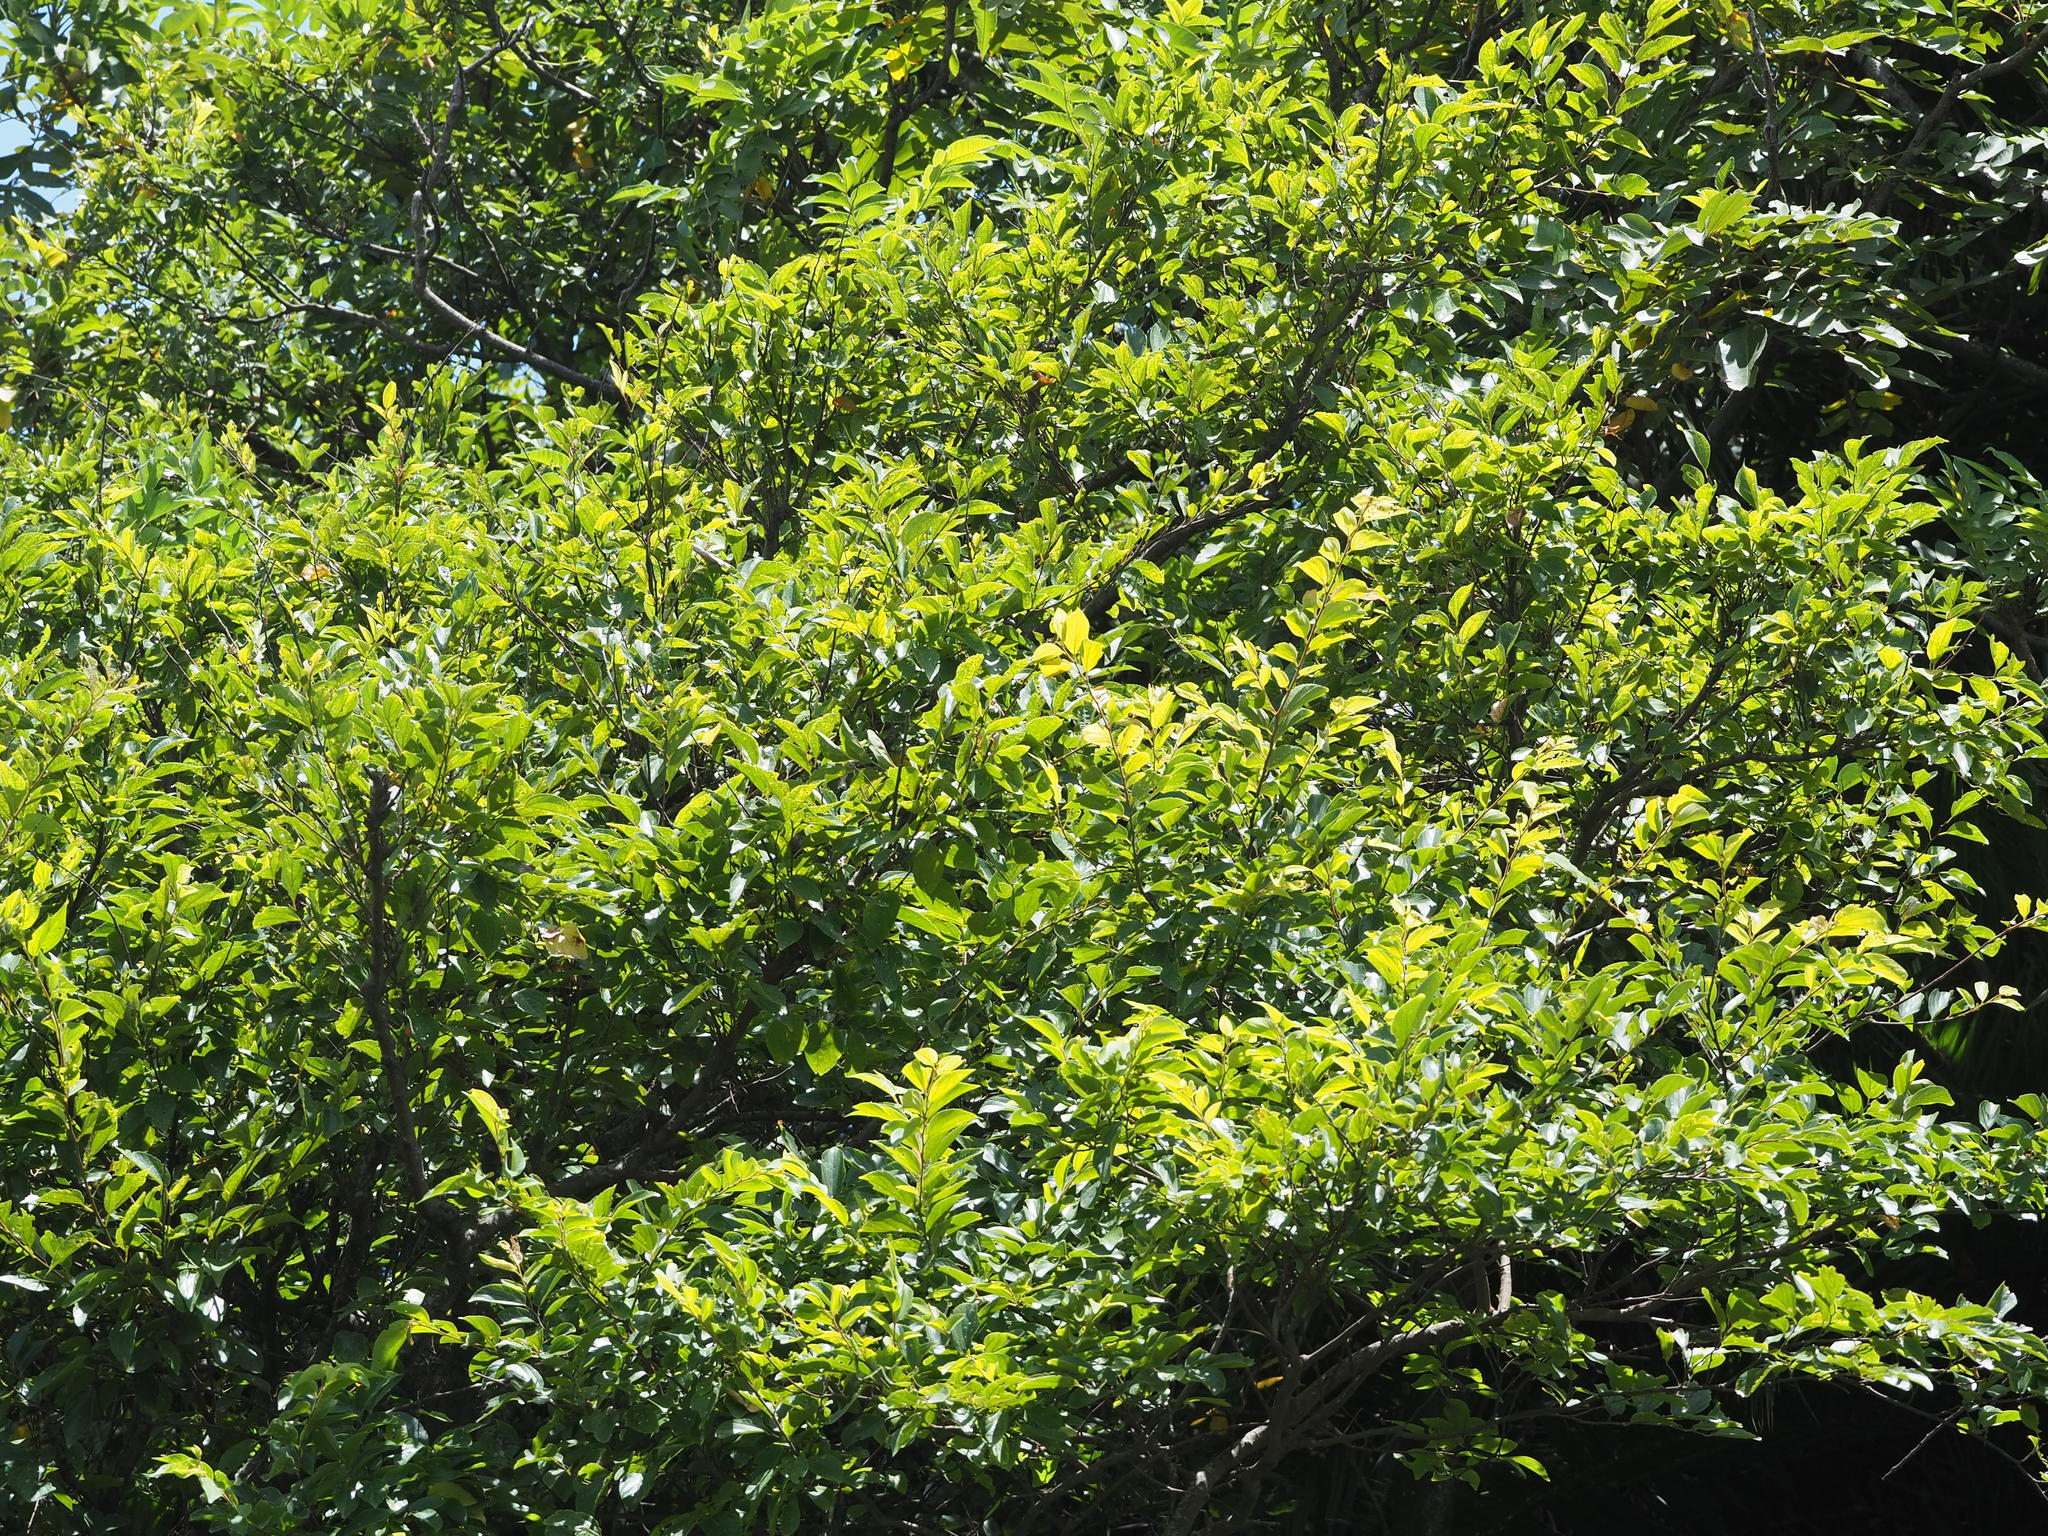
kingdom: Plantae
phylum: Tracheophyta
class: Magnoliopsida
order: Rosales
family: Cannabaceae
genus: Celtis
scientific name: Celtis sinensis
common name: Chinese hackberry
